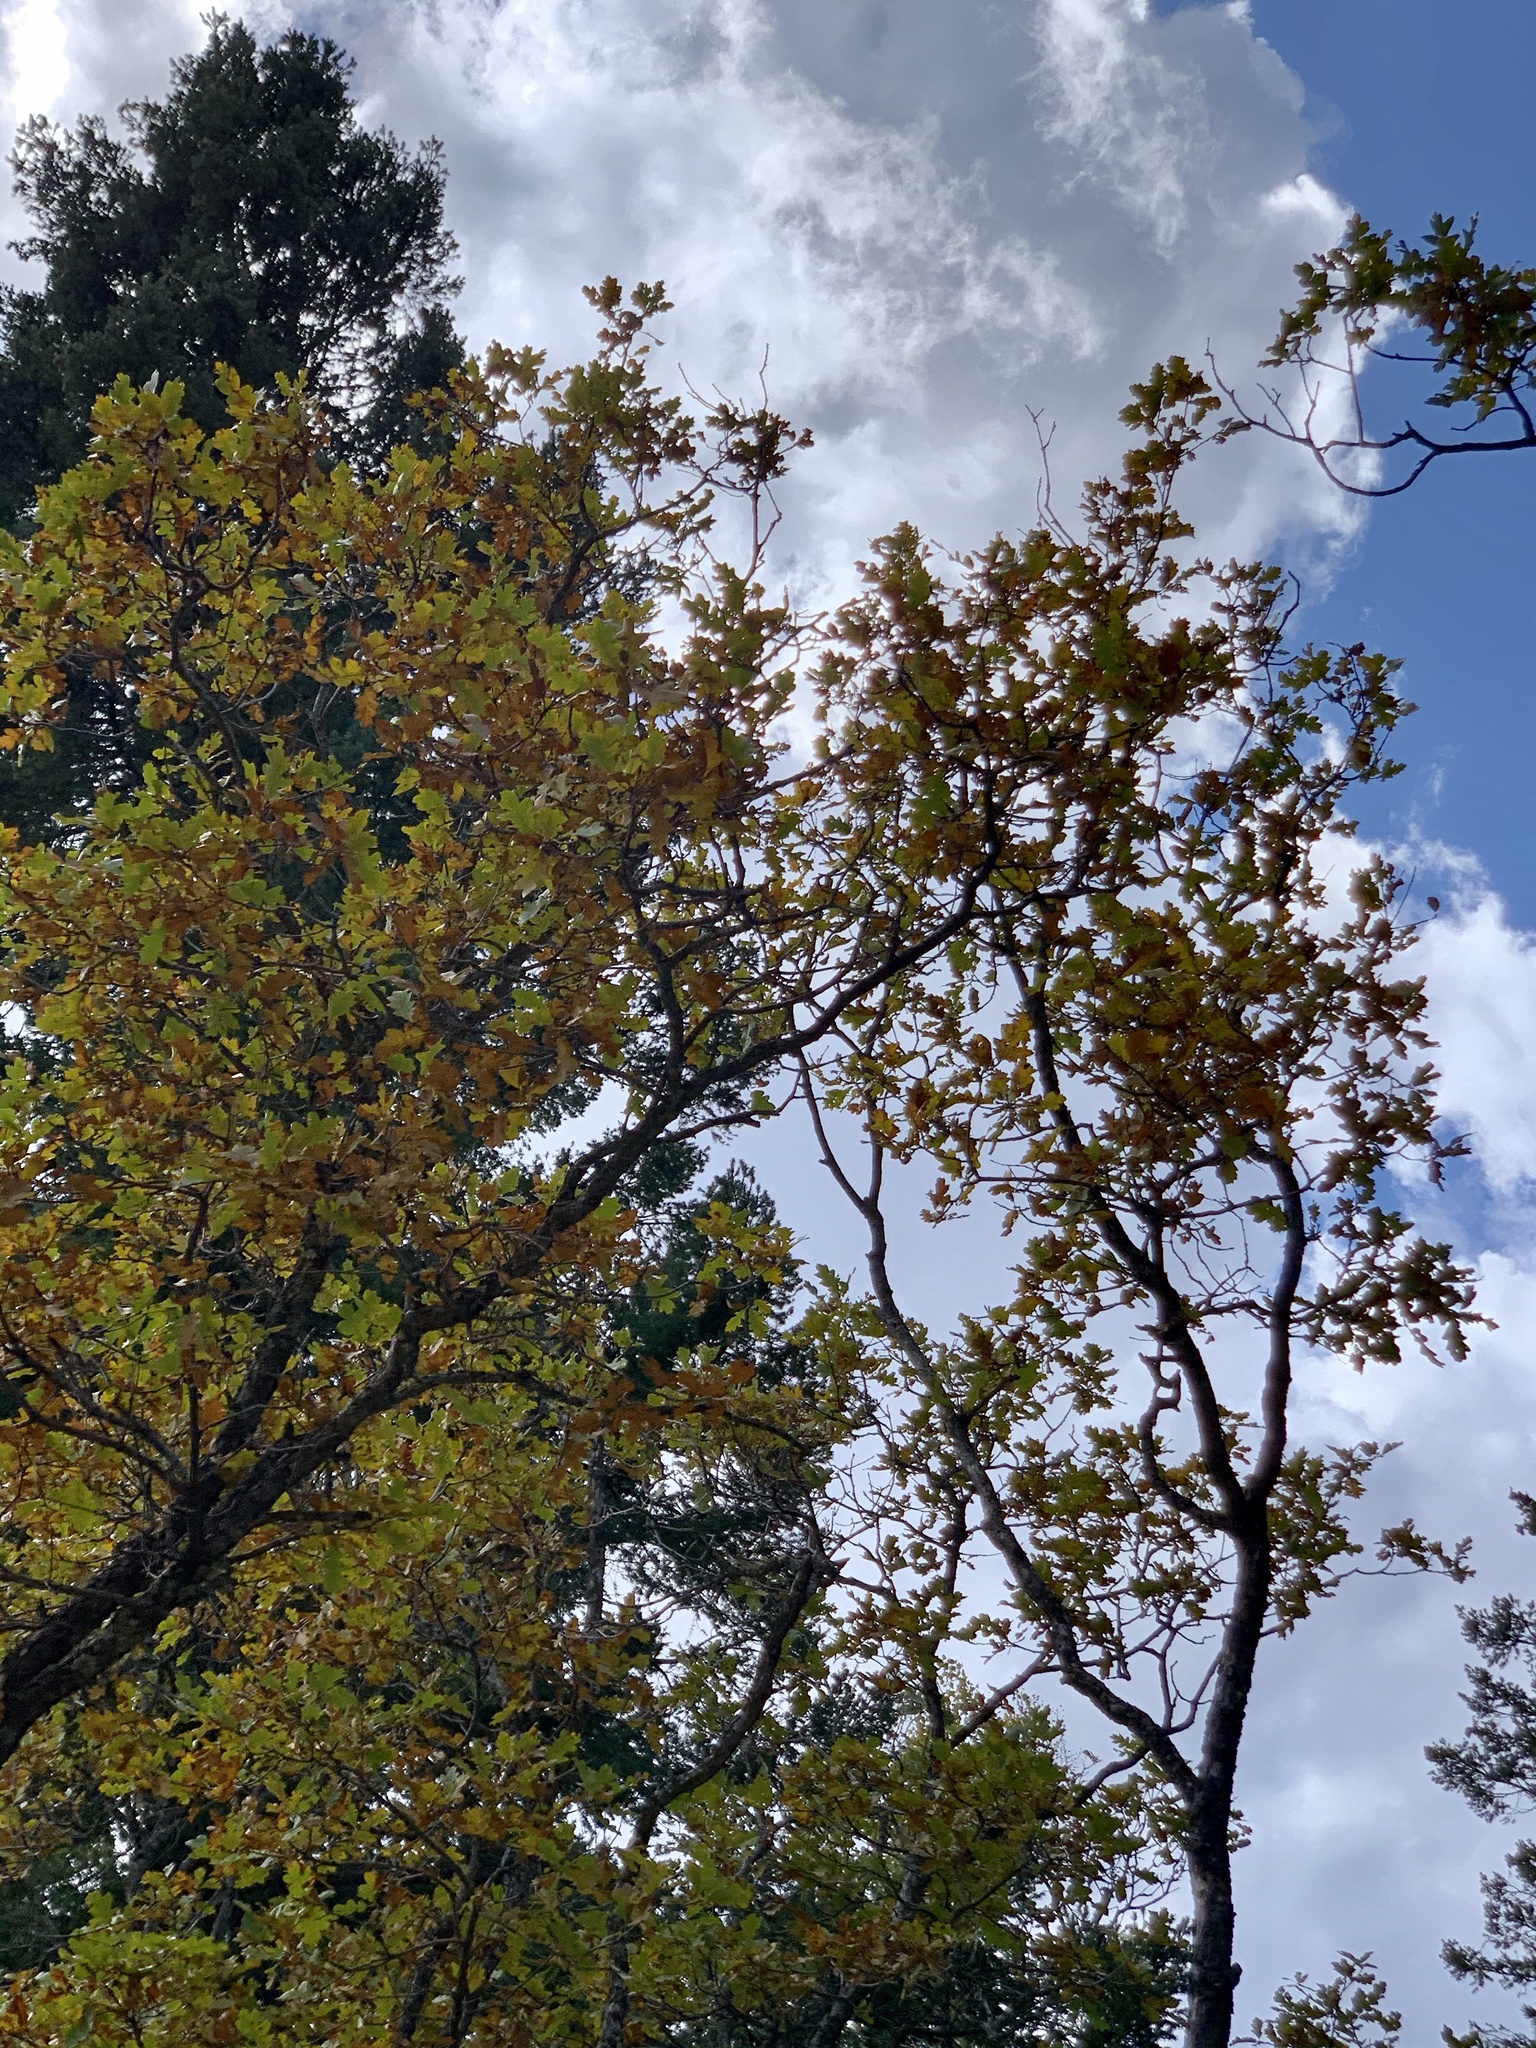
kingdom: Plantae
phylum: Tracheophyta
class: Magnoliopsida
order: Fagales
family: Fagaceae
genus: Quercus
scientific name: Quercus gambelii
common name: Gambel oak
